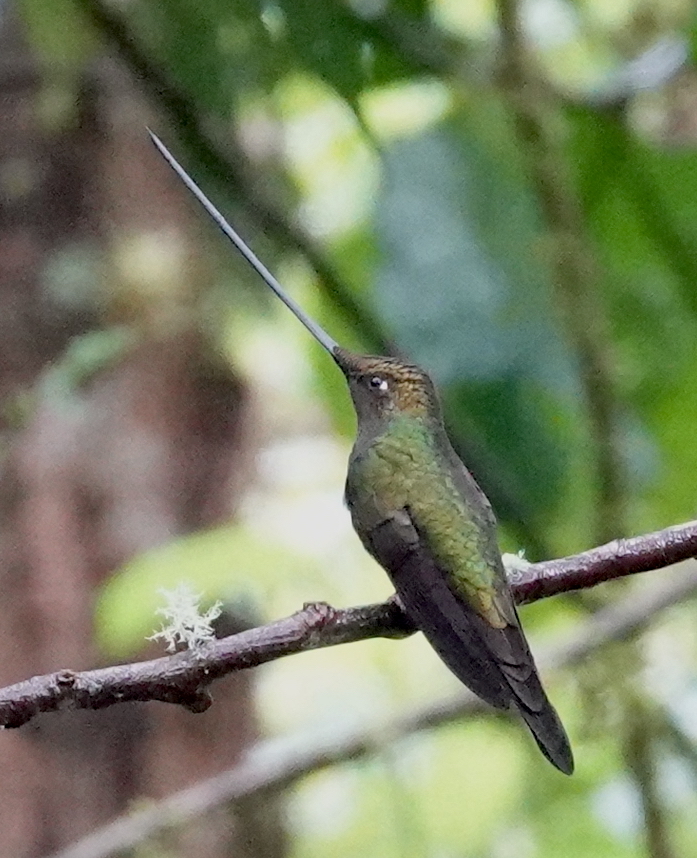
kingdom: Animalia
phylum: Chordata
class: Aves
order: Apodiformes
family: Trochilidae
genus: Ensifera
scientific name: Ensifera ensifera
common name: Sword-billed hummingbird
